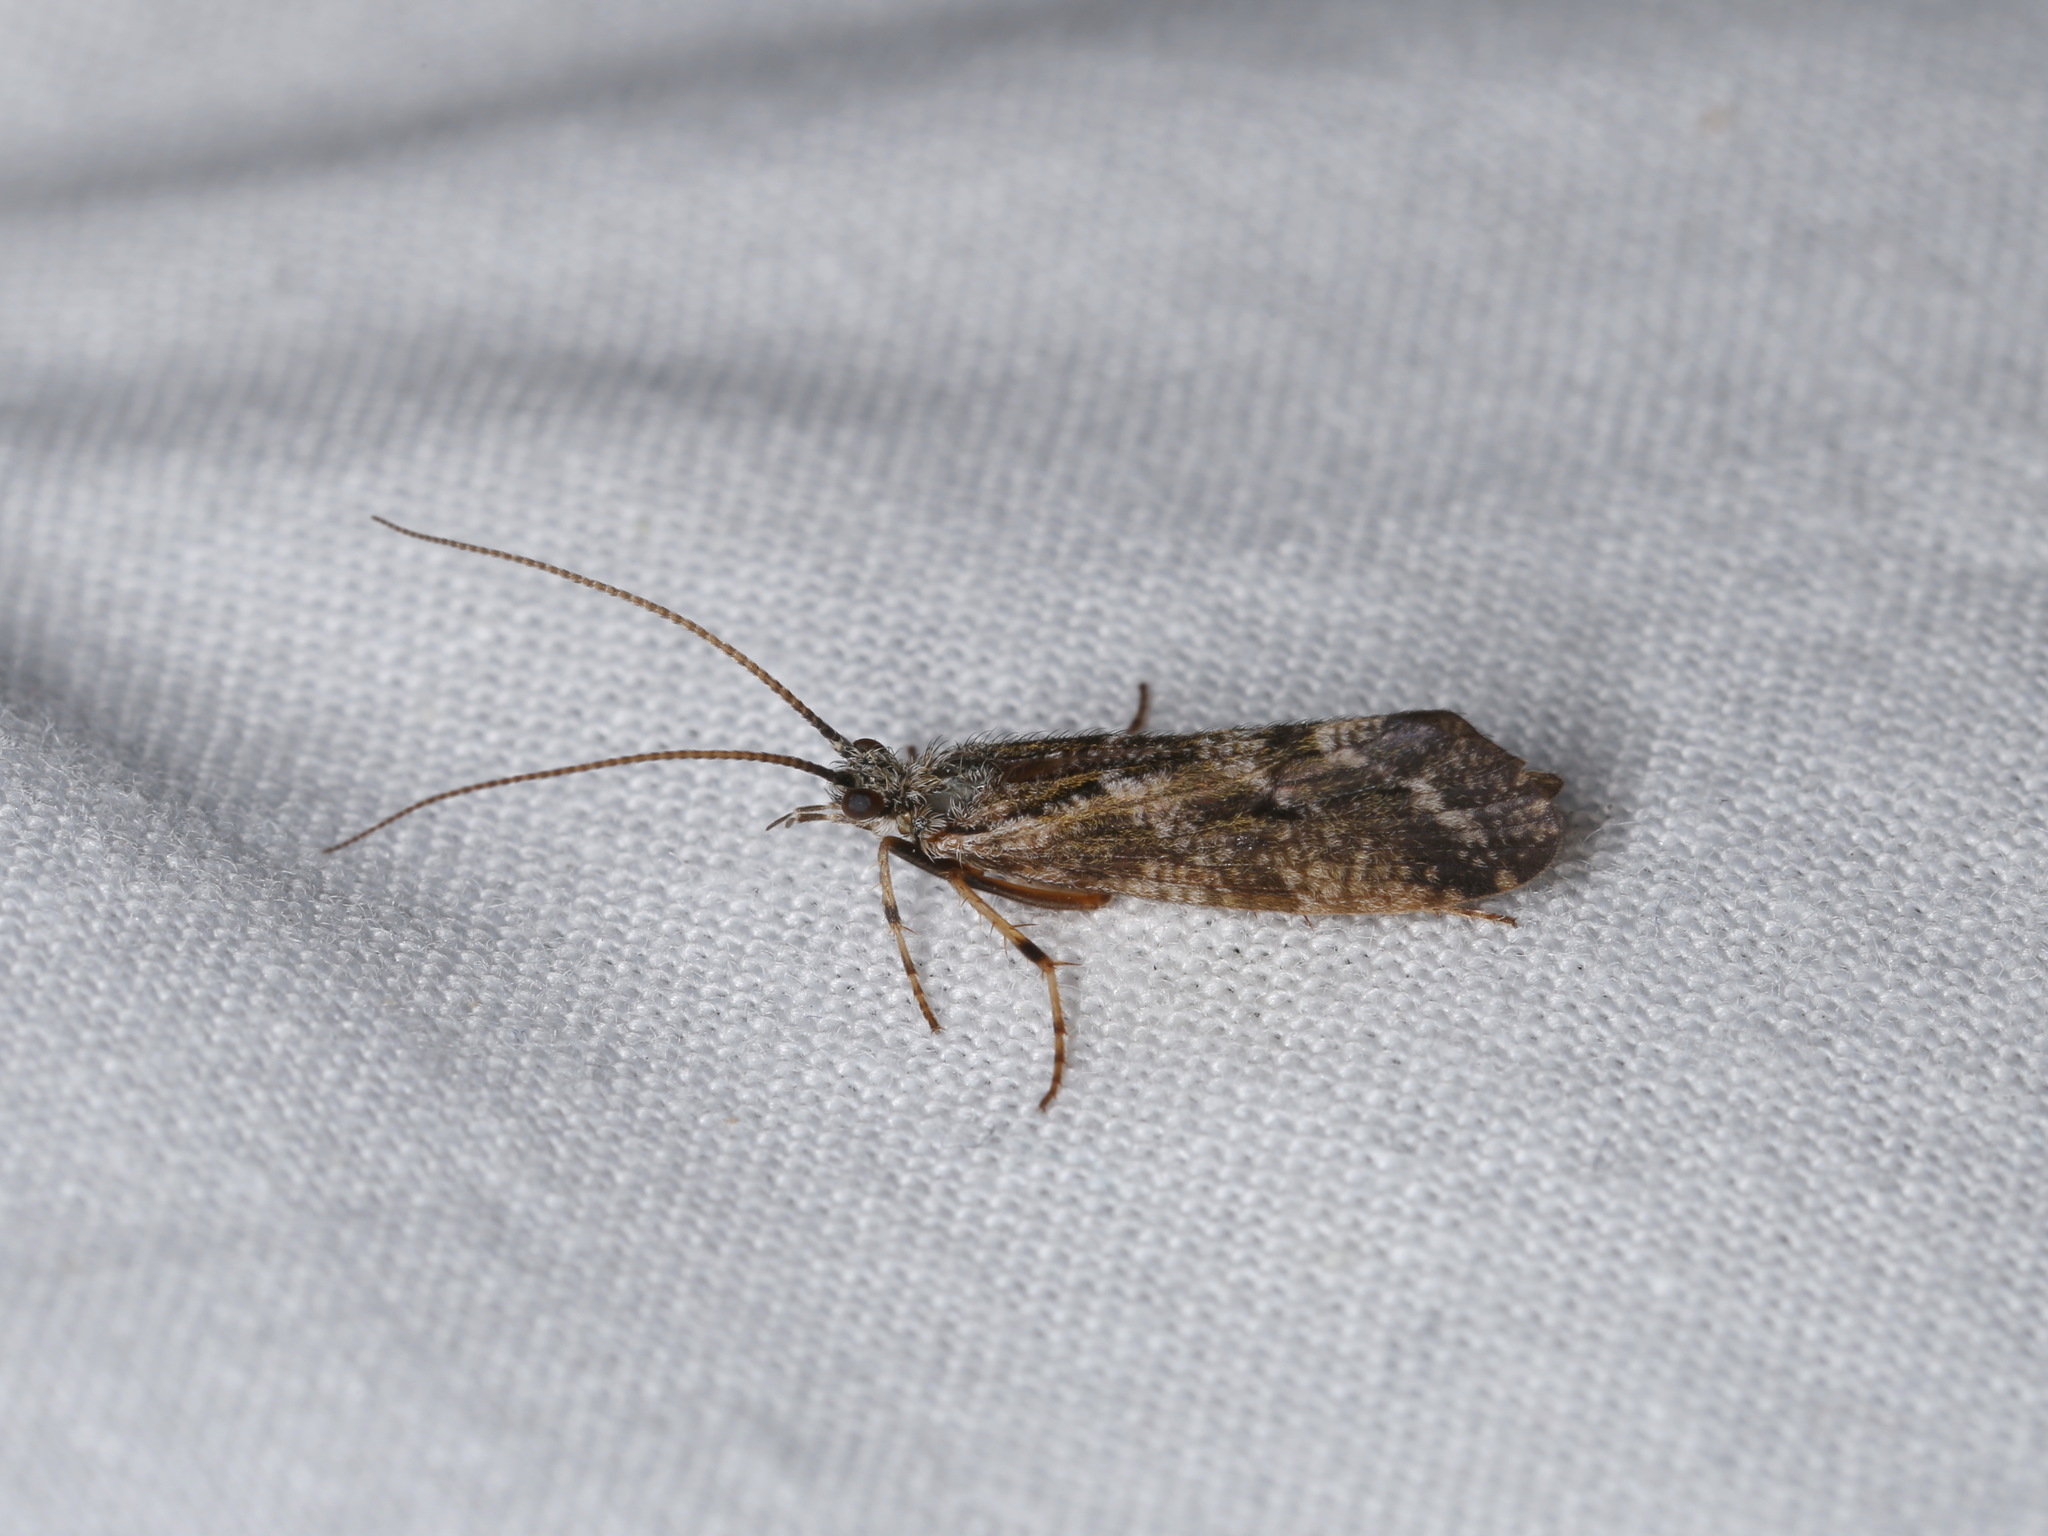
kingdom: Animalia
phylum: Arthropoda
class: Insecta
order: Trichoptera
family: Phryganeidae
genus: Trichostegia
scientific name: Trichostegia minor
